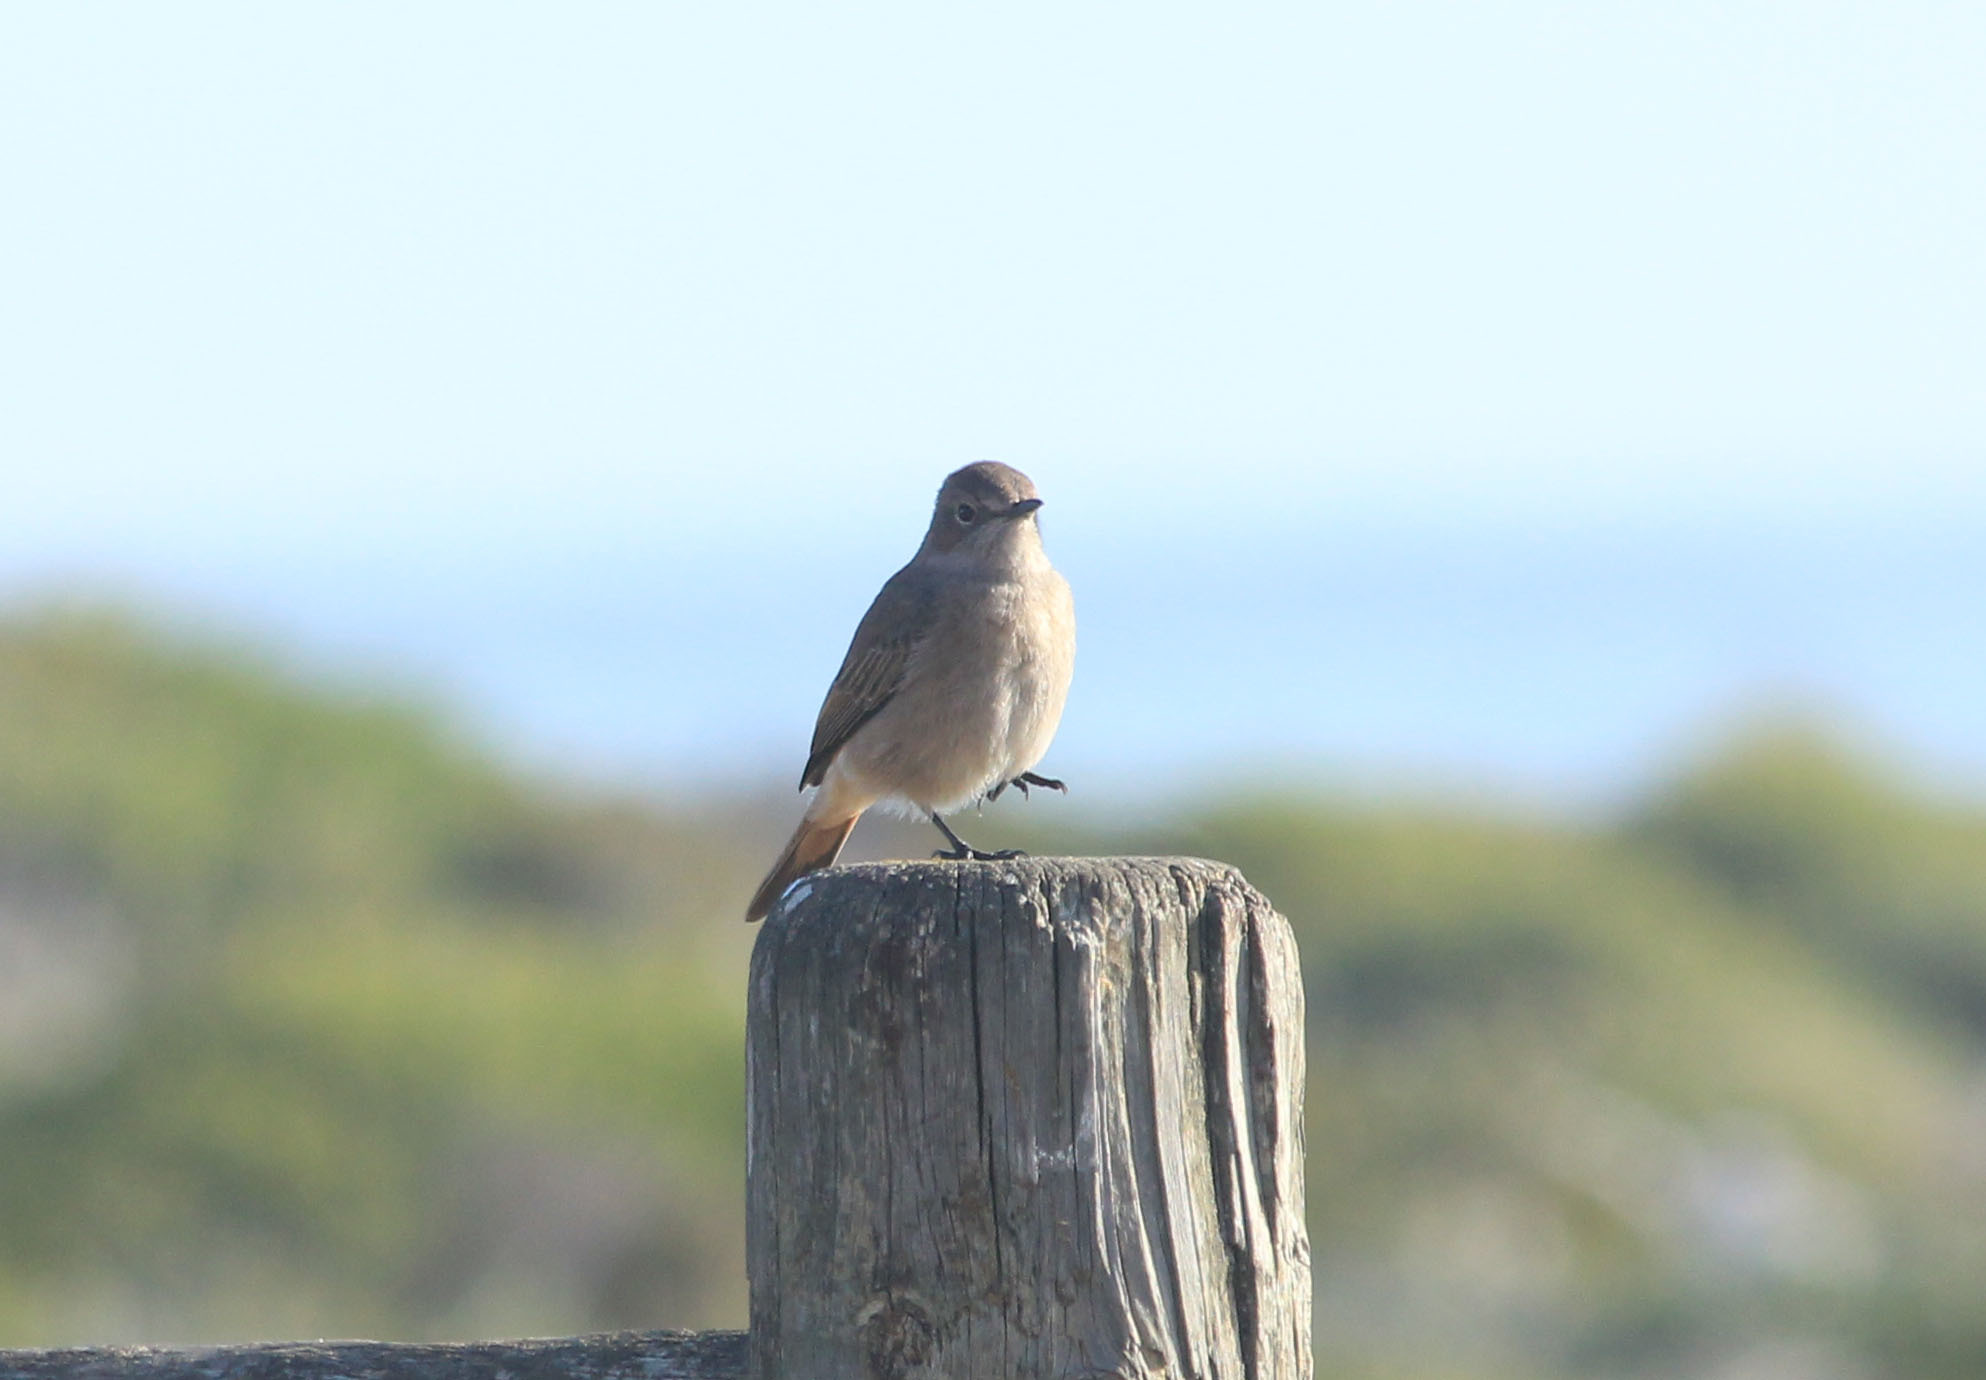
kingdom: Animalia
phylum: Chordata
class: Aves
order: Passeriformes
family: Muscicapidae
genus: Oenanthe
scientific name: Oenanthe familiaris
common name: Familiar chat
